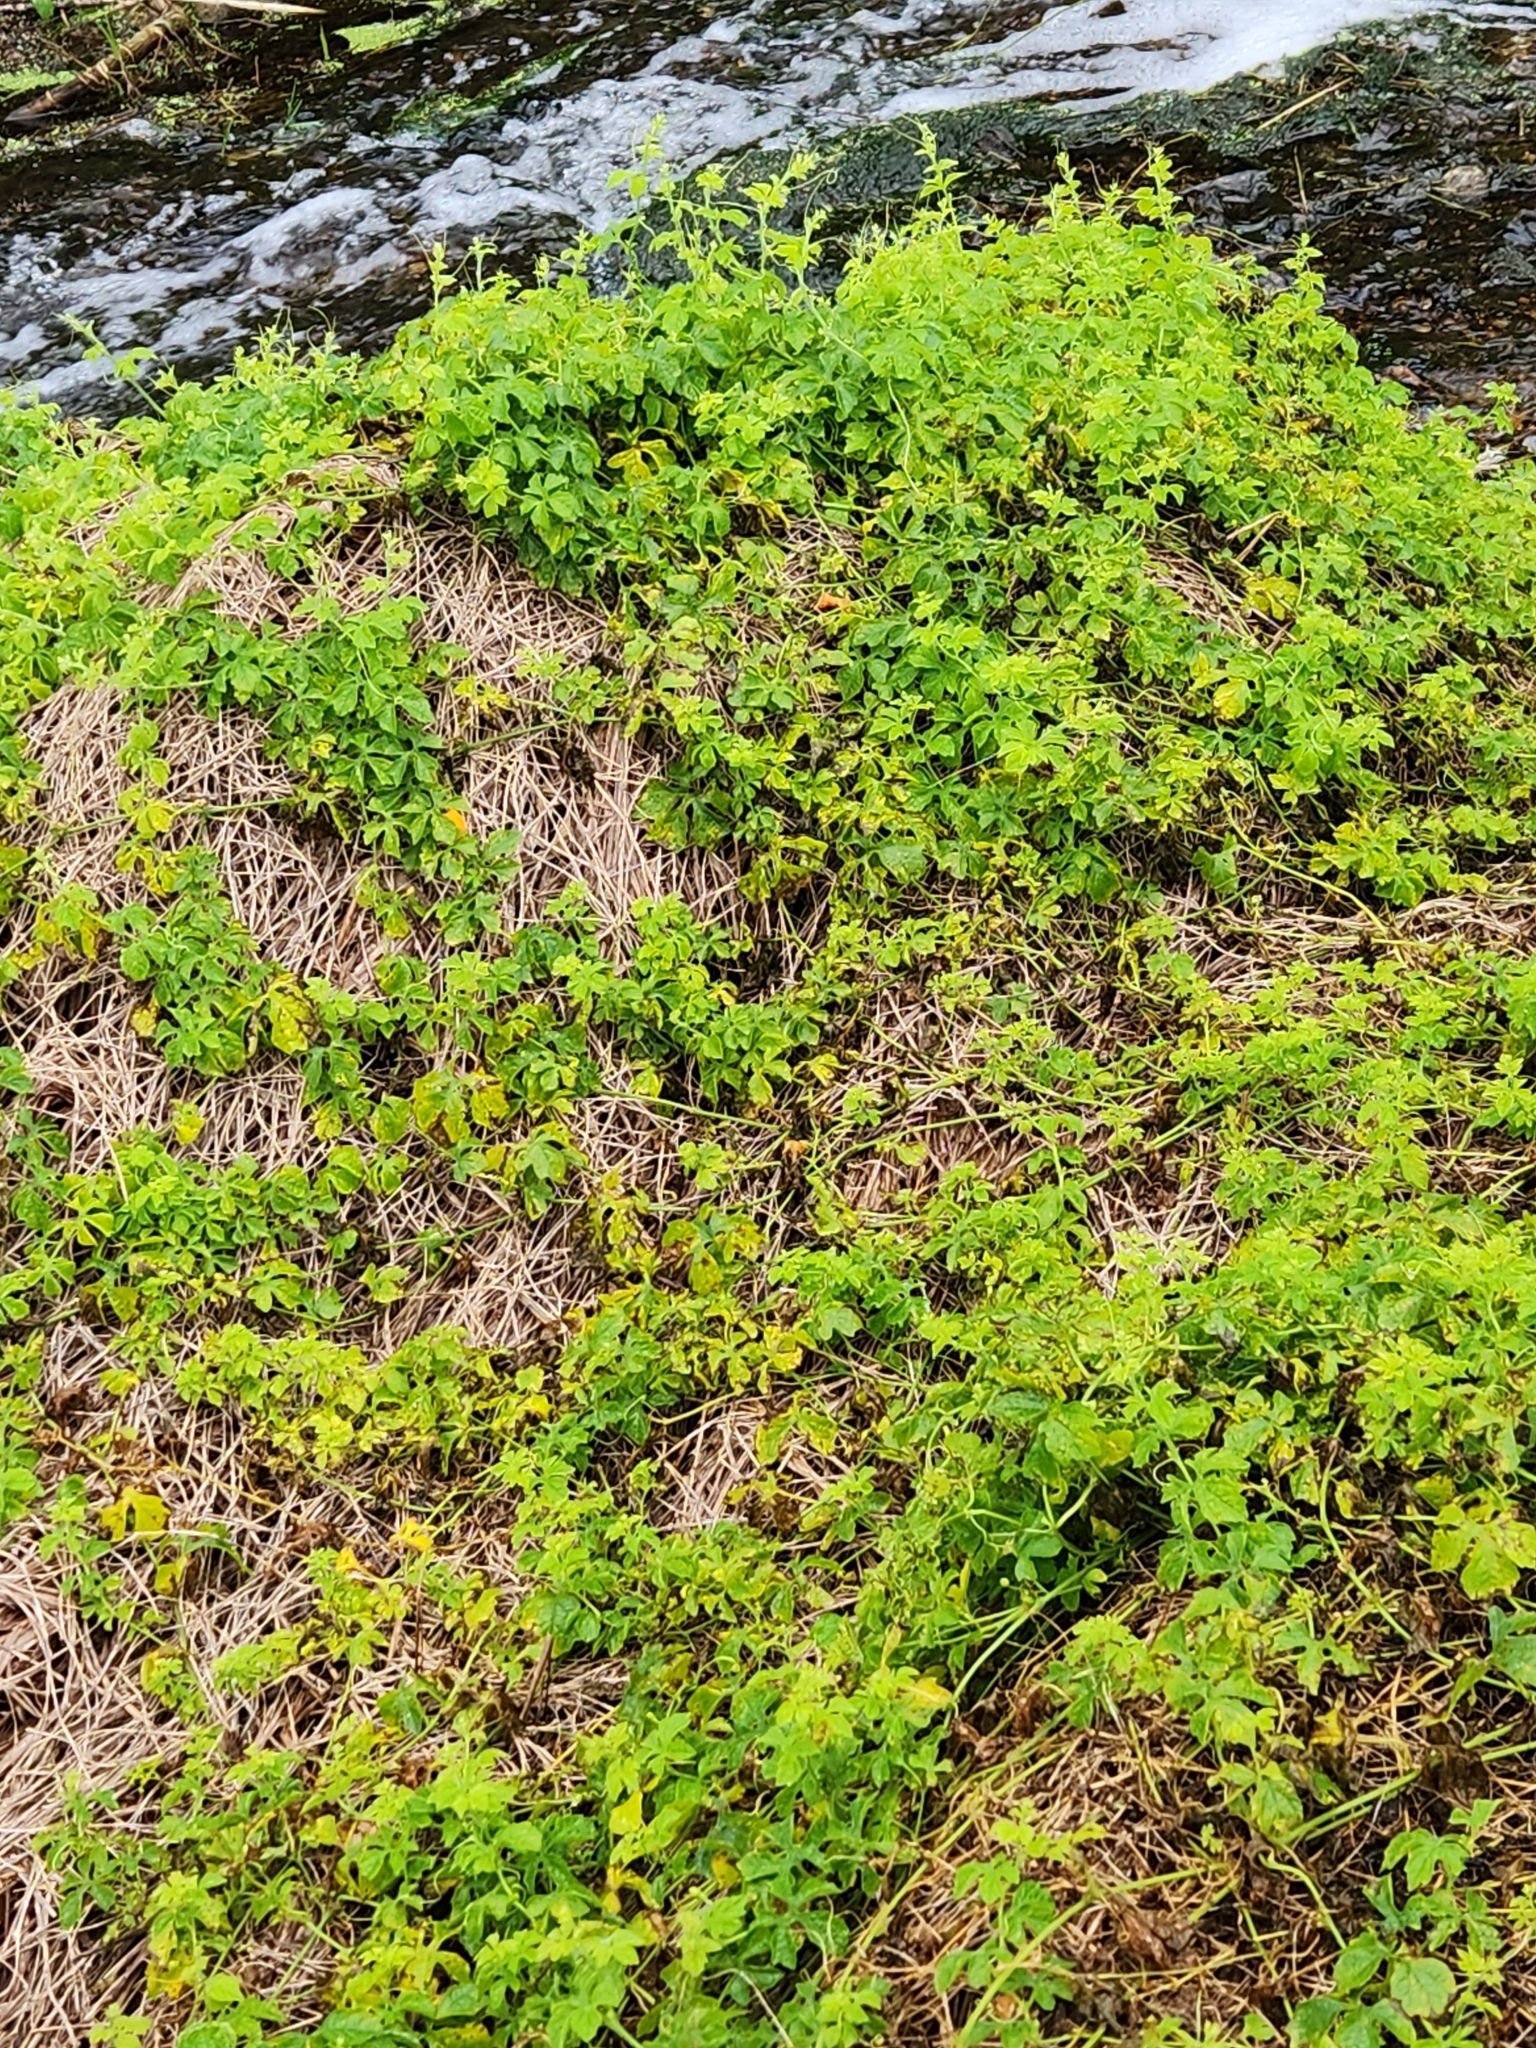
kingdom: Plantae
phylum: Tracheophyta
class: Magnoliopsida
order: Cucurbitales
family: Cucurbitaceae
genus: Momordica
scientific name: Momordica charantia
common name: Balsampear
